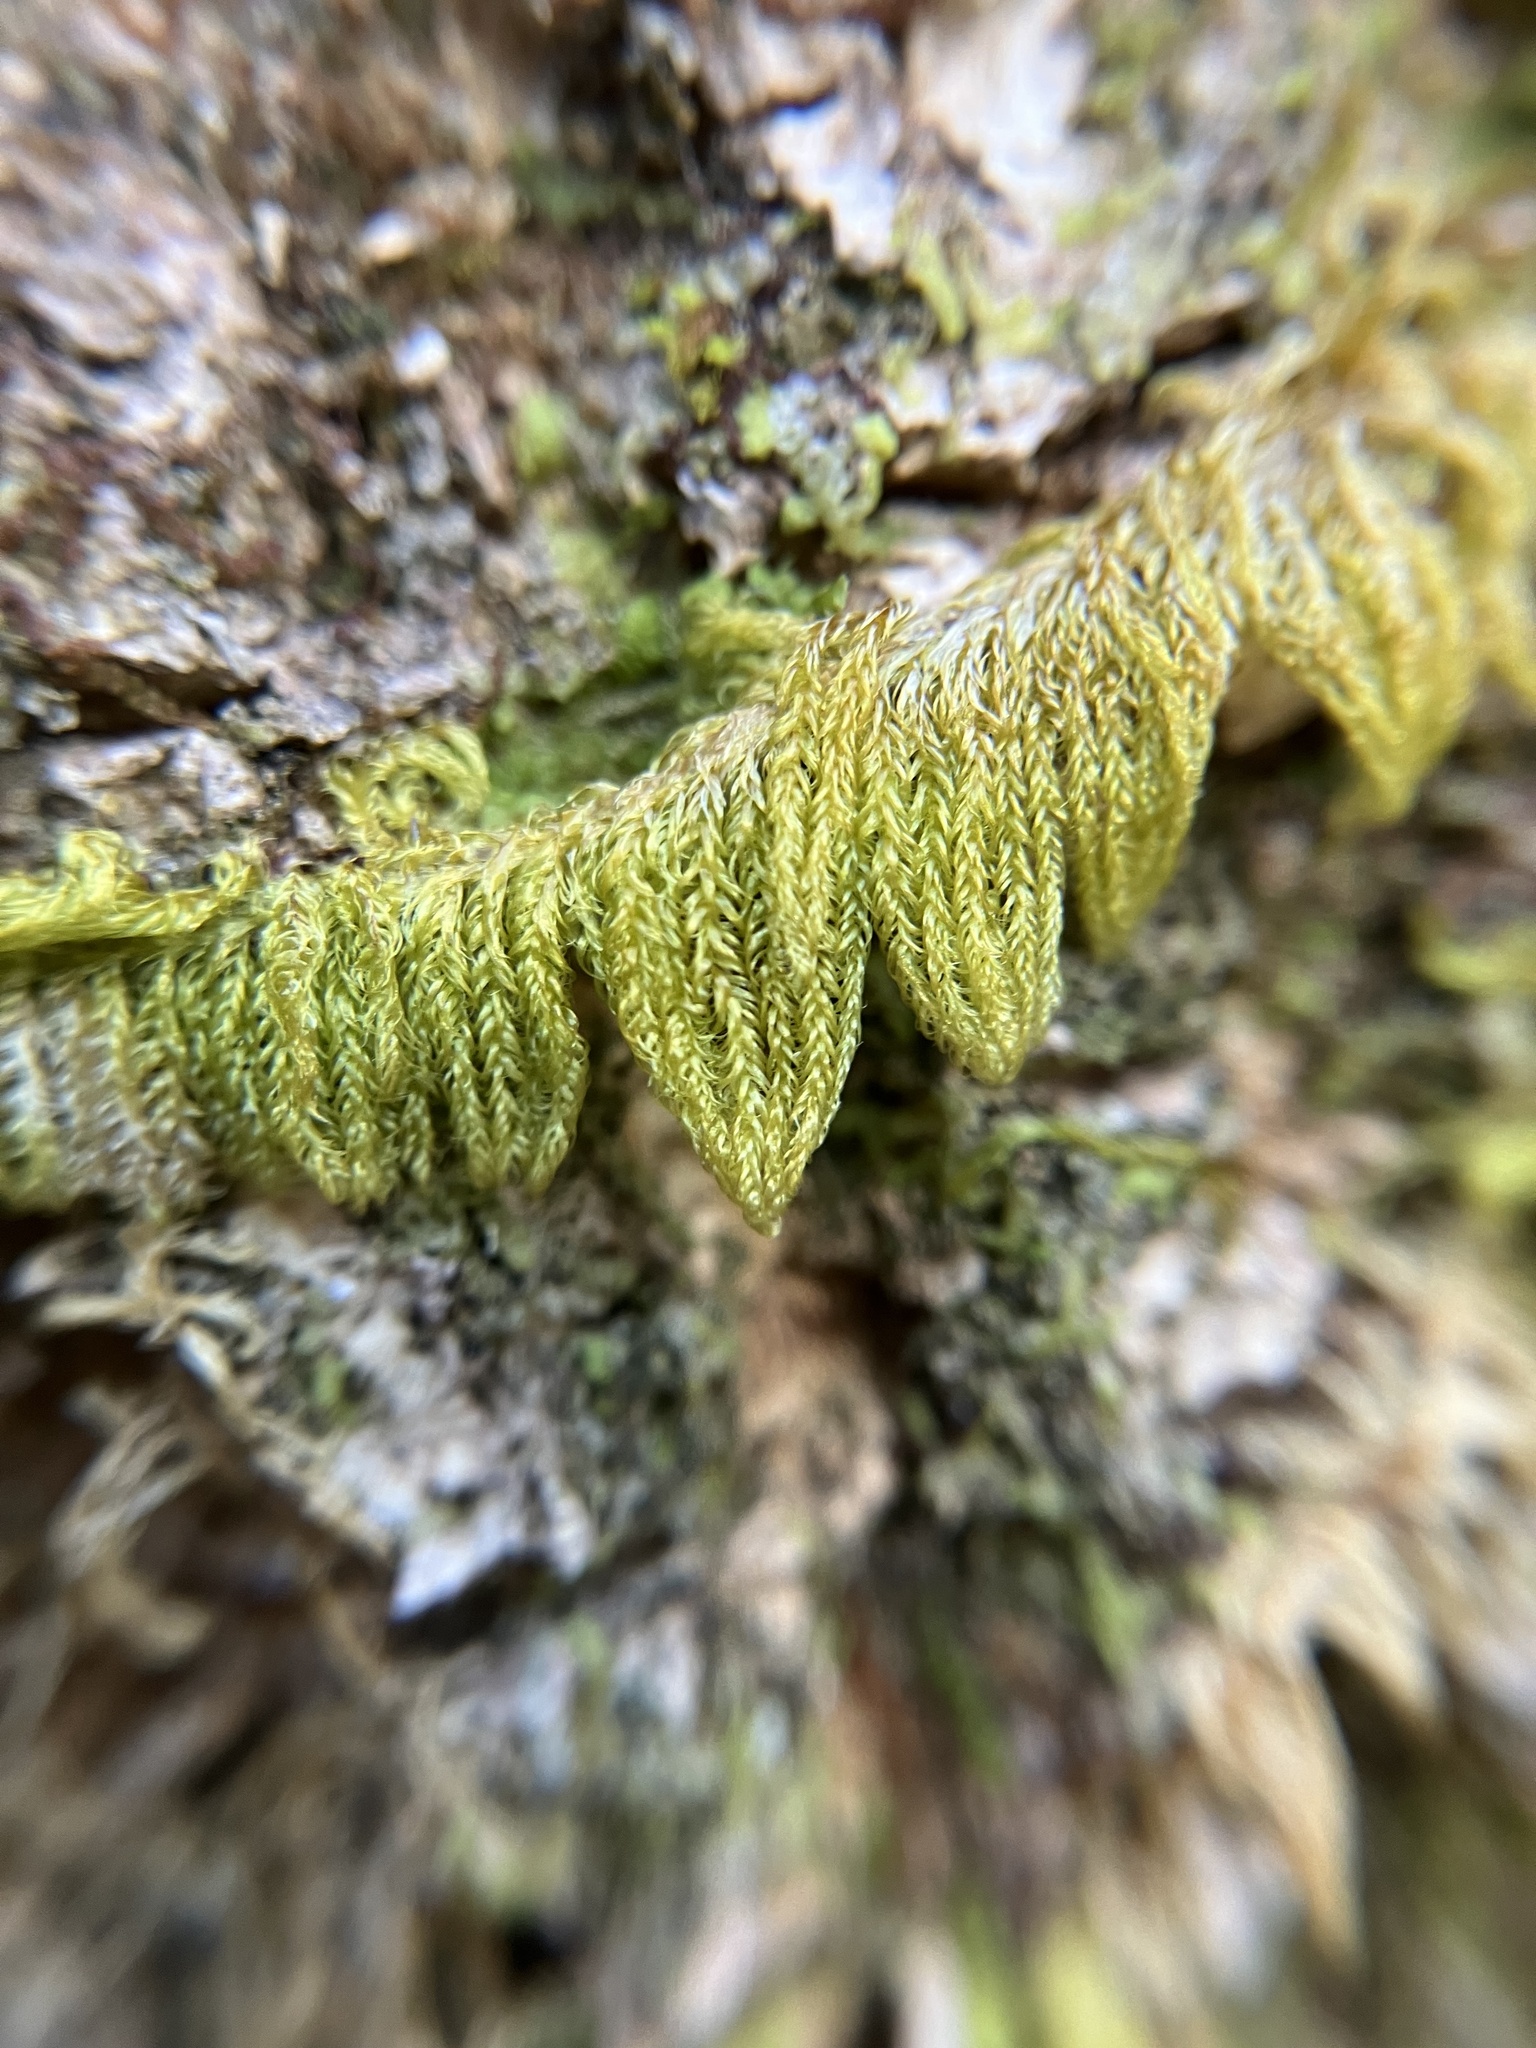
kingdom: Plantae
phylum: Bryophyta
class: Bryopsida
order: Hypnales
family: Pylaisiaceae
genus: Ptilium
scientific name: Ptilium crista-castrensis
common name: Knight's plume moss
